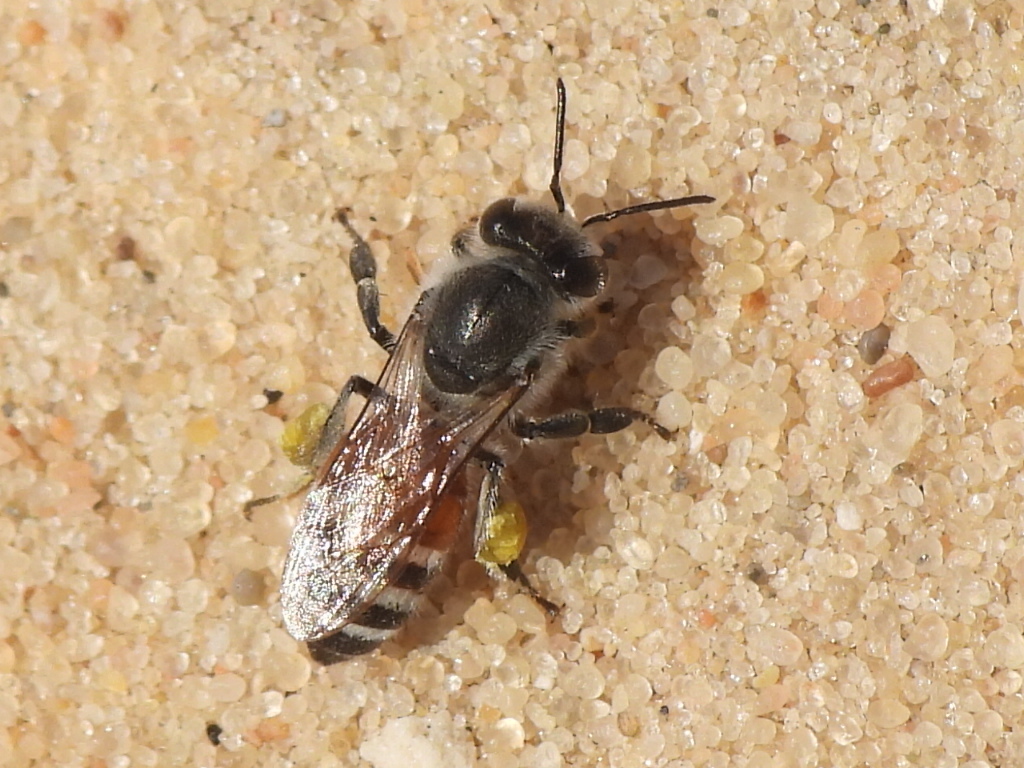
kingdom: Animalia
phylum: Arthropoda
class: Insecta
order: Hymenoptera
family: Apidae
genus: Apis
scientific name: Apis florea
